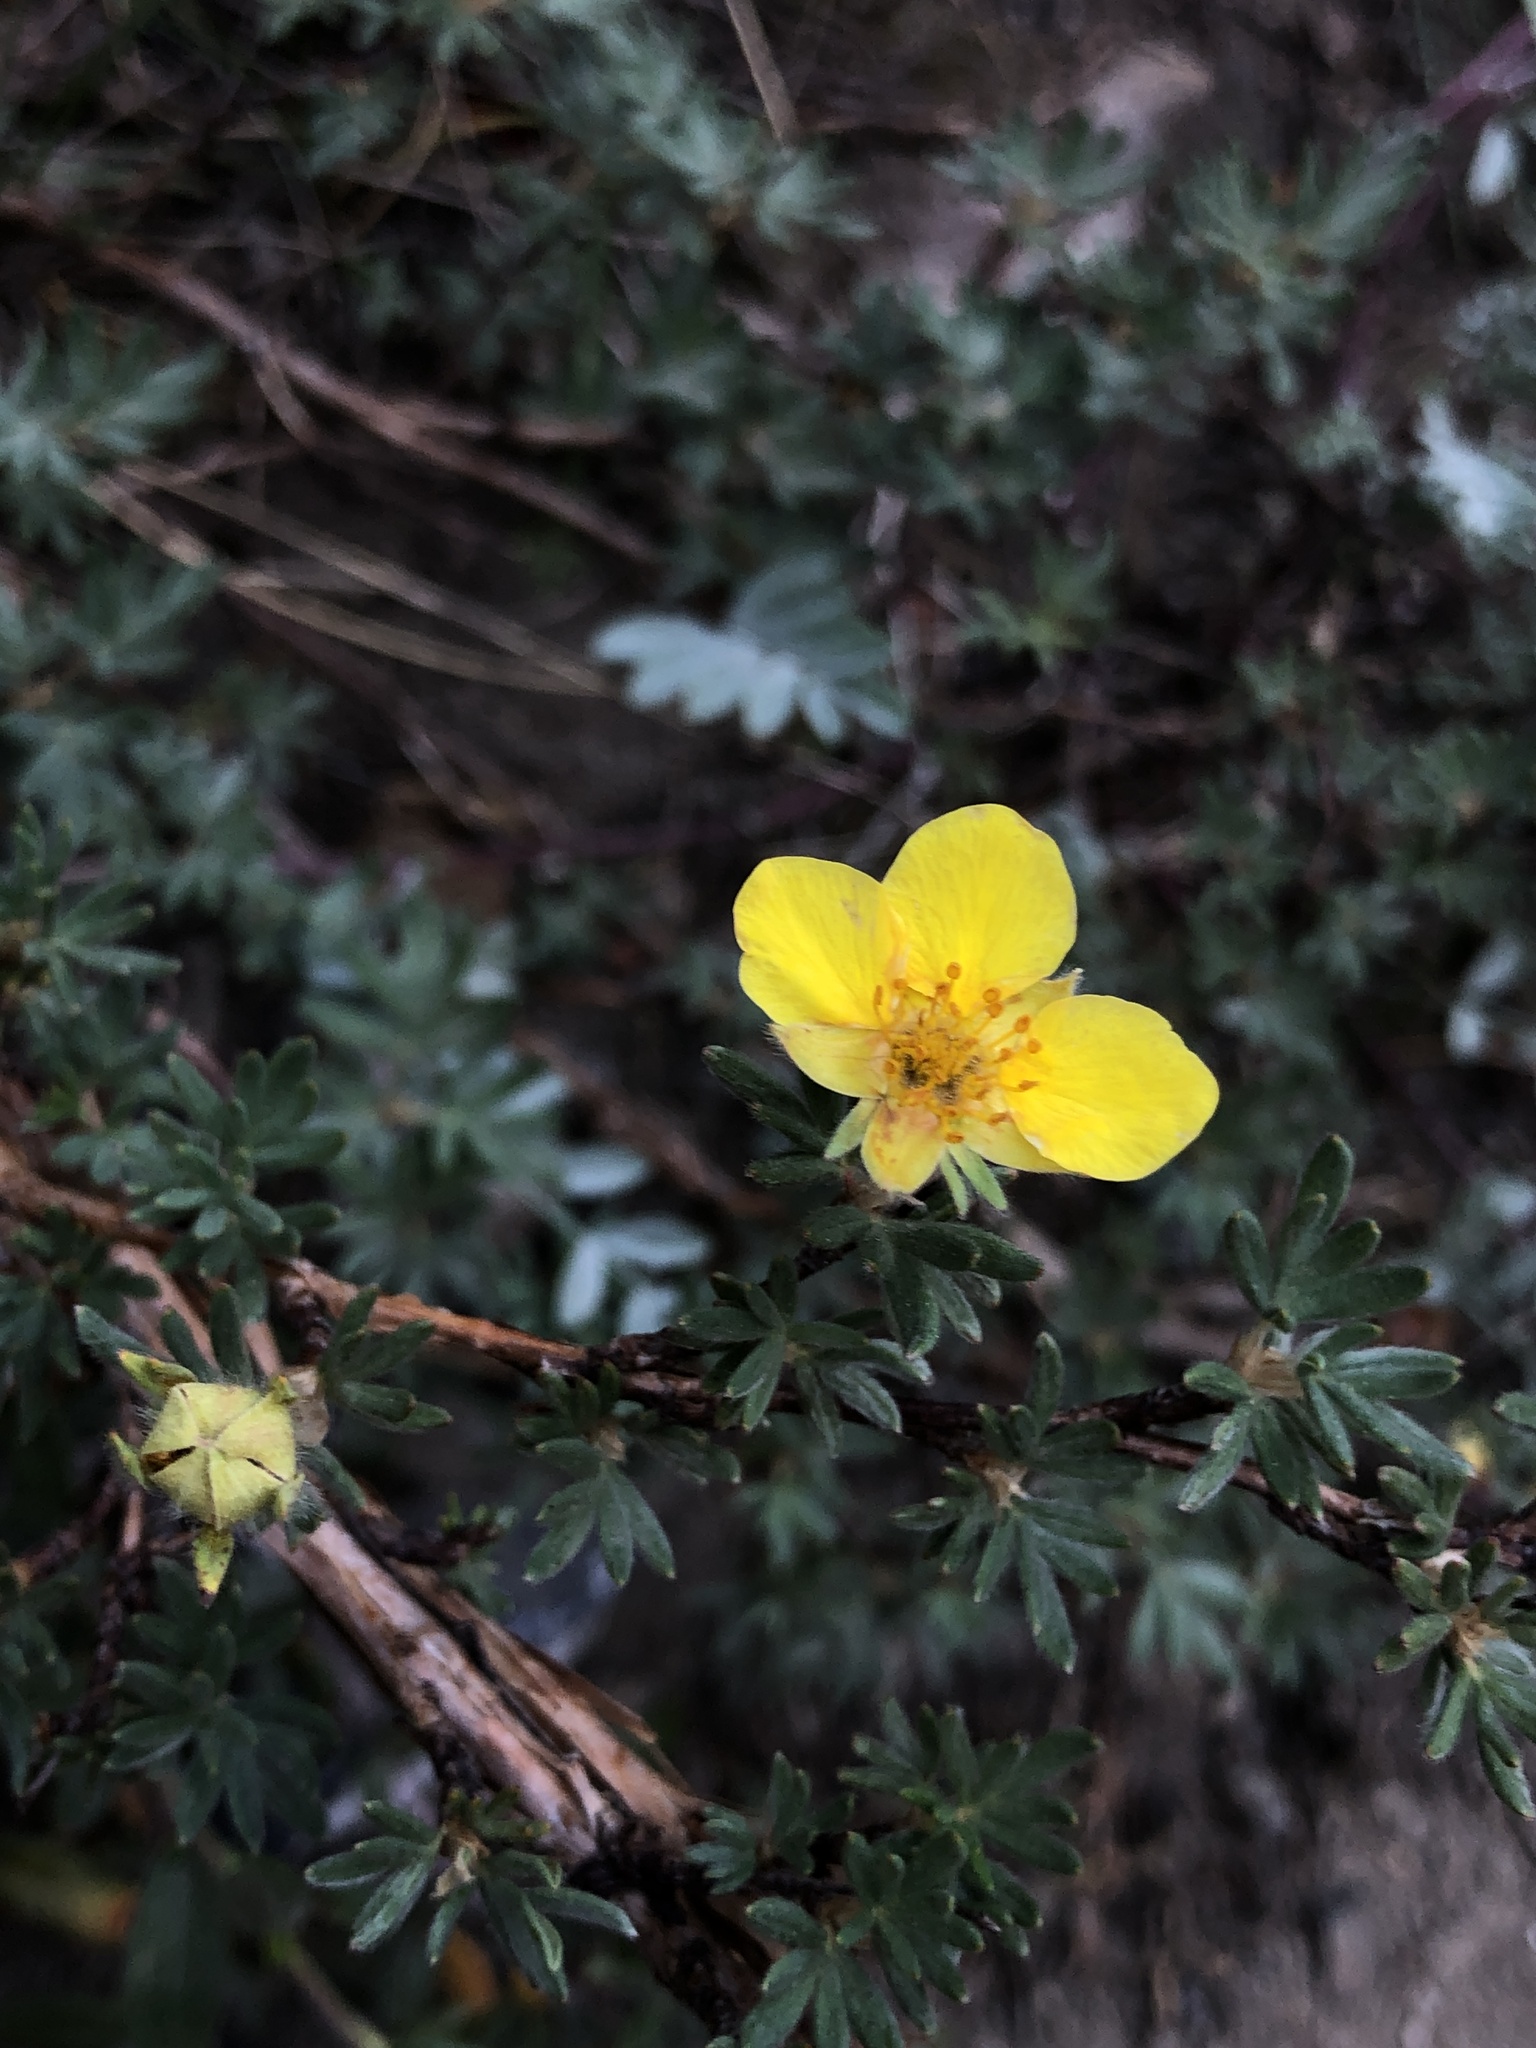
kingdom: Plantae
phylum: Tracheophyta
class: Magnoliopsida
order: Rosales
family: Rosaceae
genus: Dasiphora
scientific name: Dasiphora fruticosa
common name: Shrubby cinquefoil
